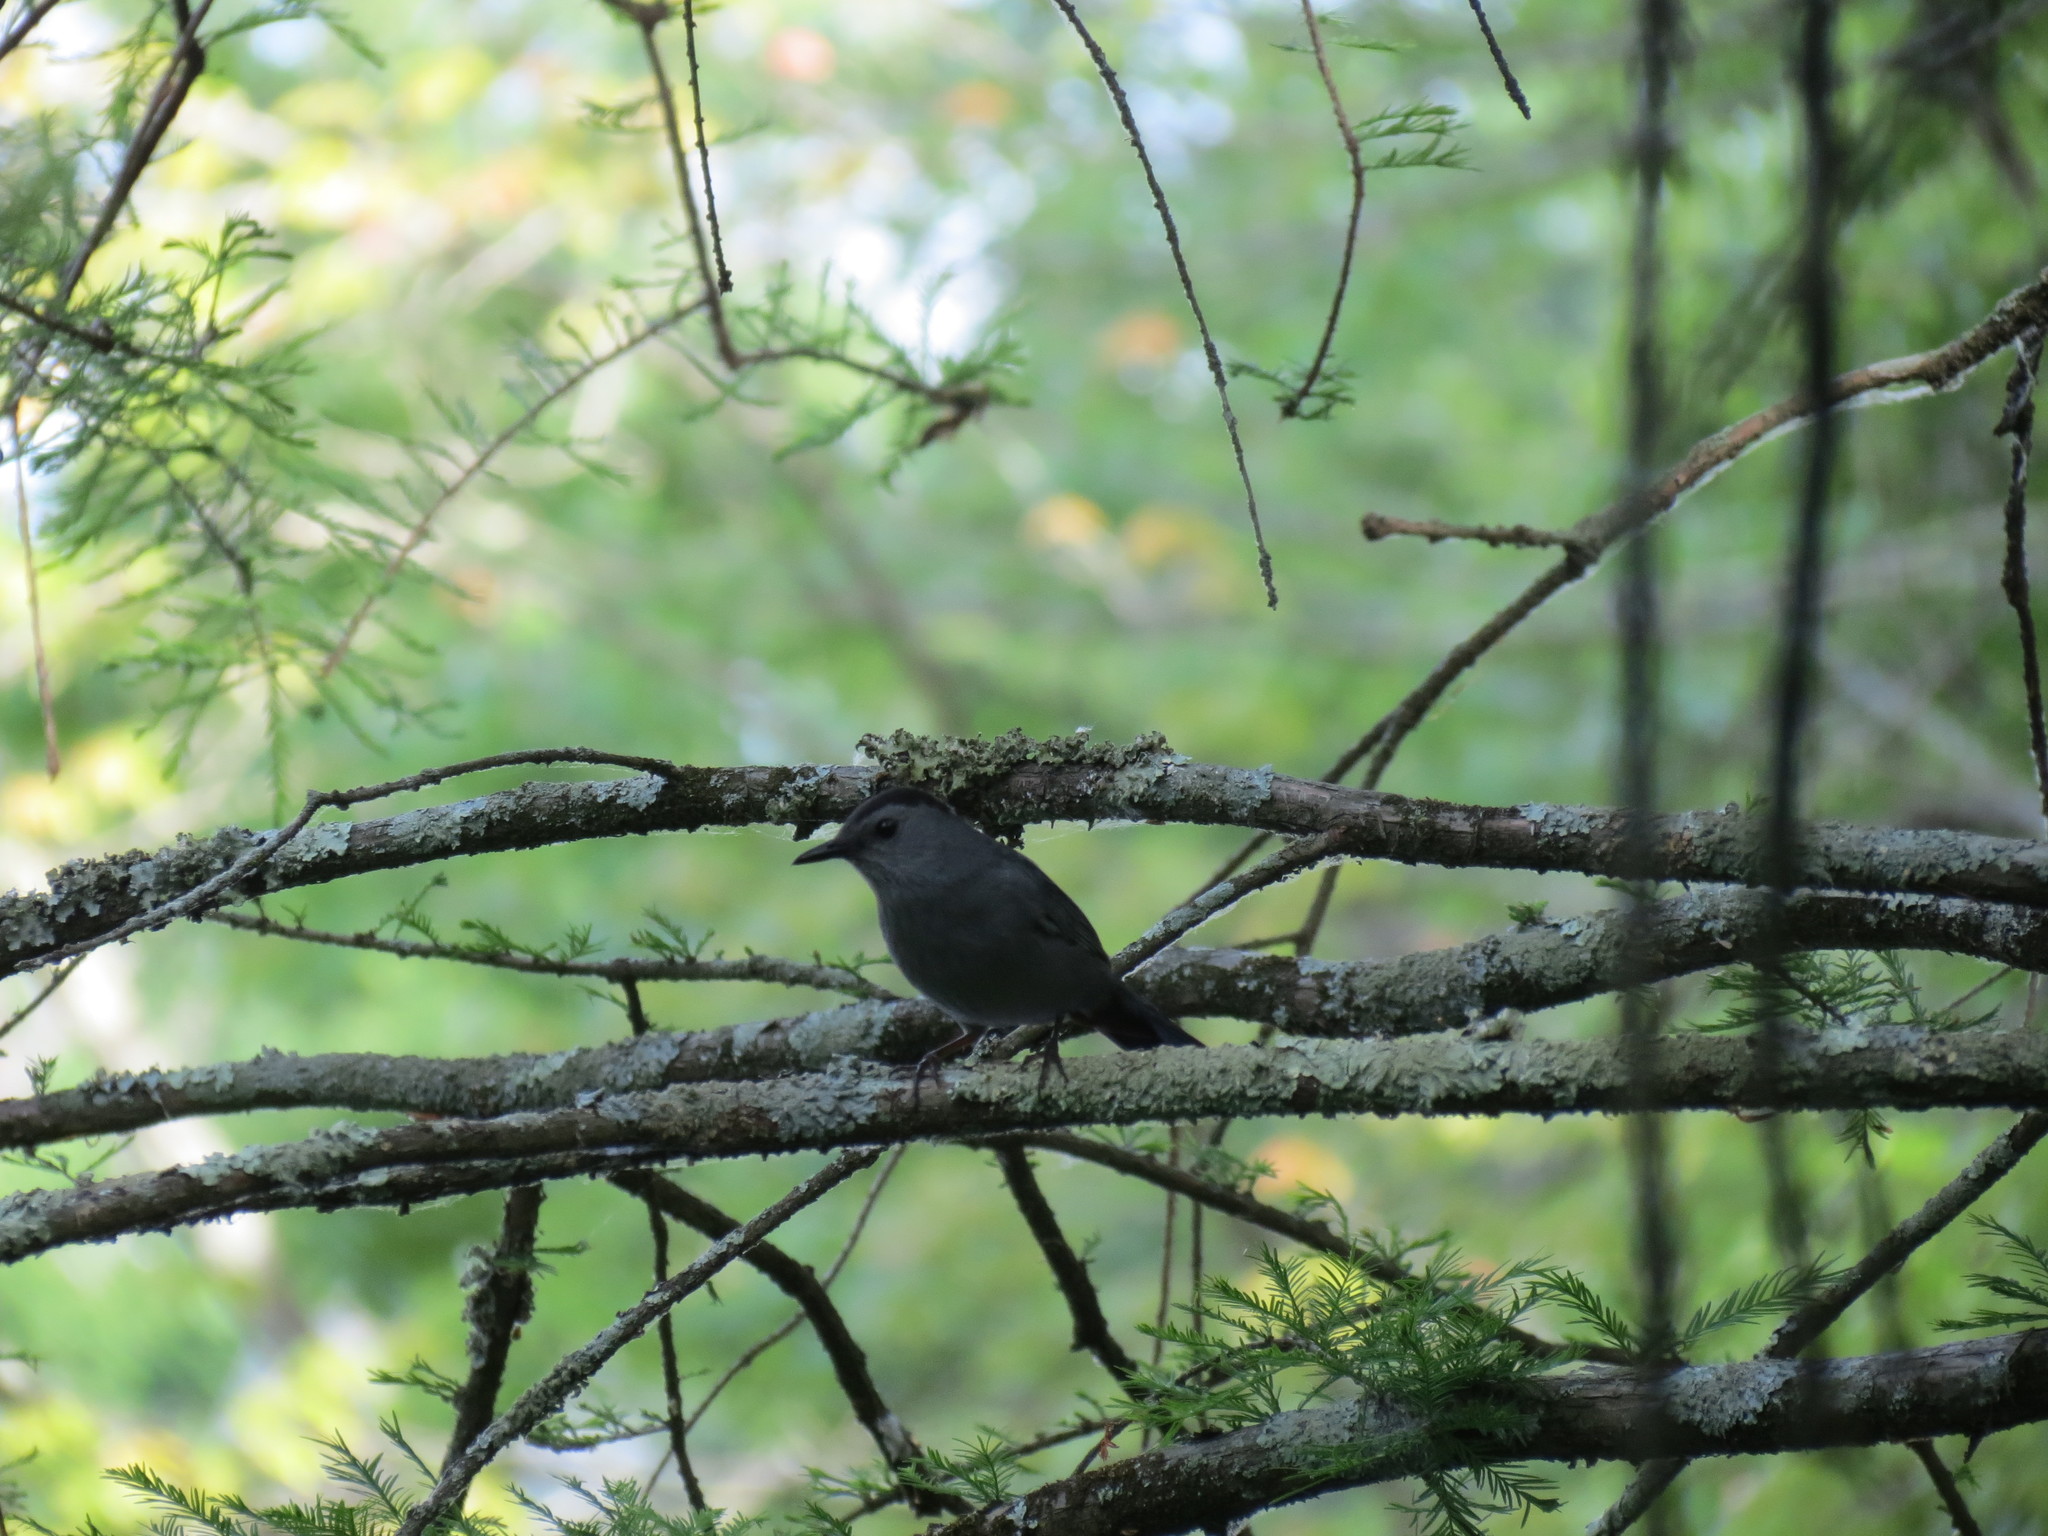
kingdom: Animalia
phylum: Chordata
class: Aves
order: Passeriformes
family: Mimidae
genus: Dumetella
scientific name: Dumetella carolinensis
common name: Gray catbird
